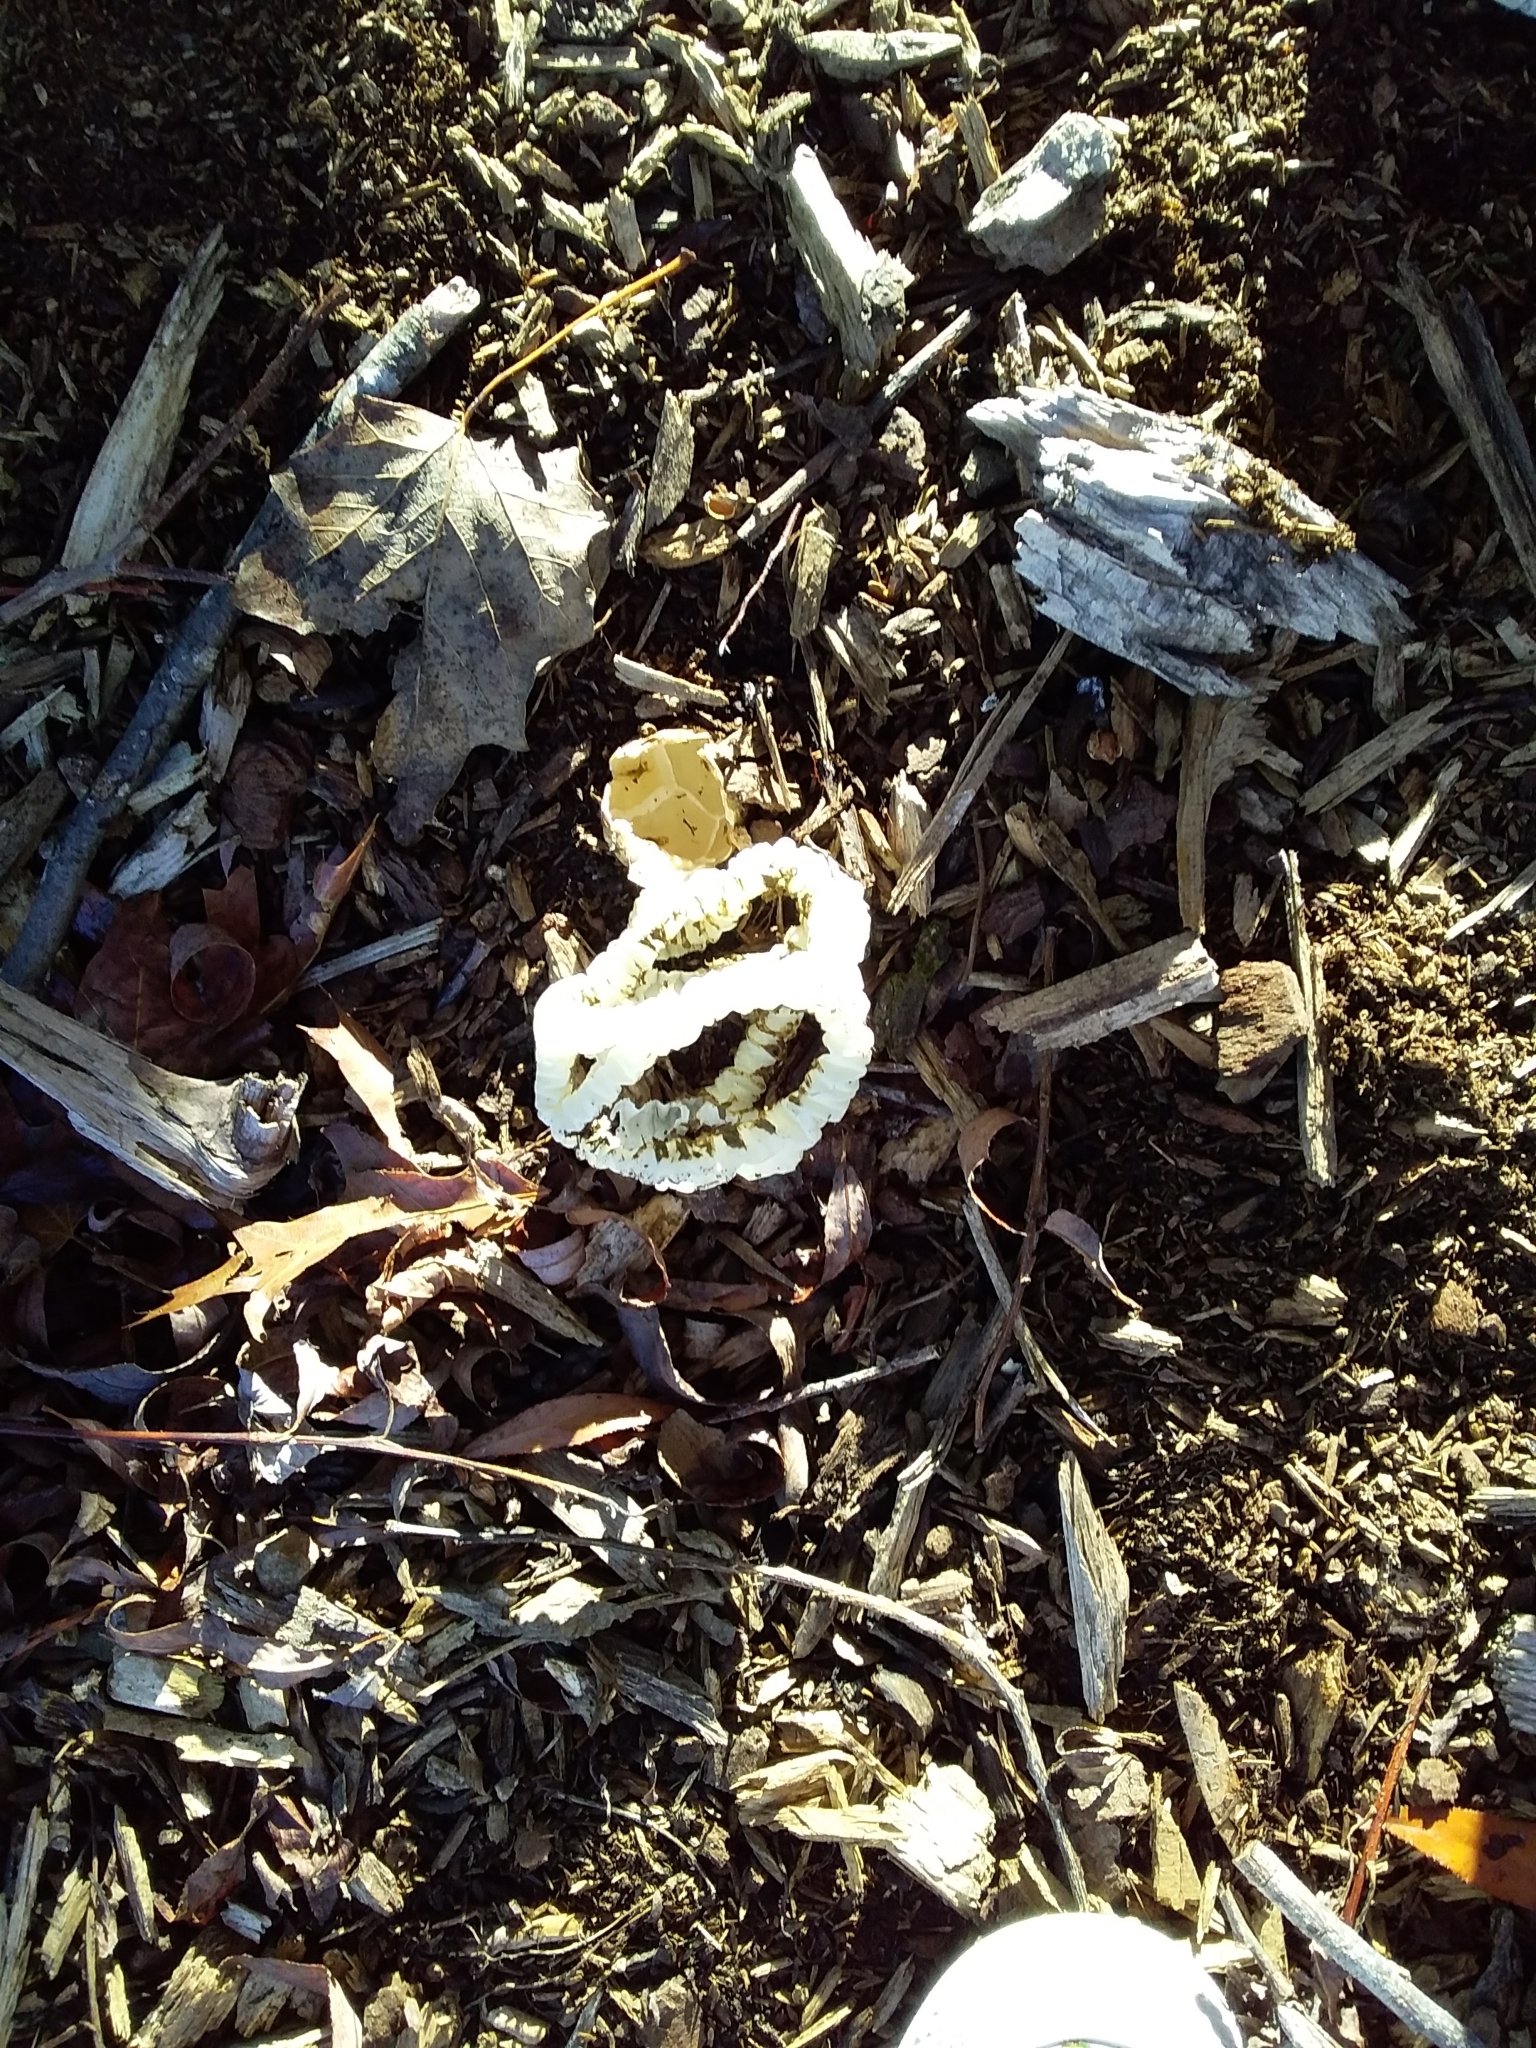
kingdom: Fungi
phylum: Basidiomycota
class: Agaricomycetes
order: Phallales
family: Phallaceae
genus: Ileodictyon
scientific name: Ileodictyon cibarium
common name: Basket fungus
